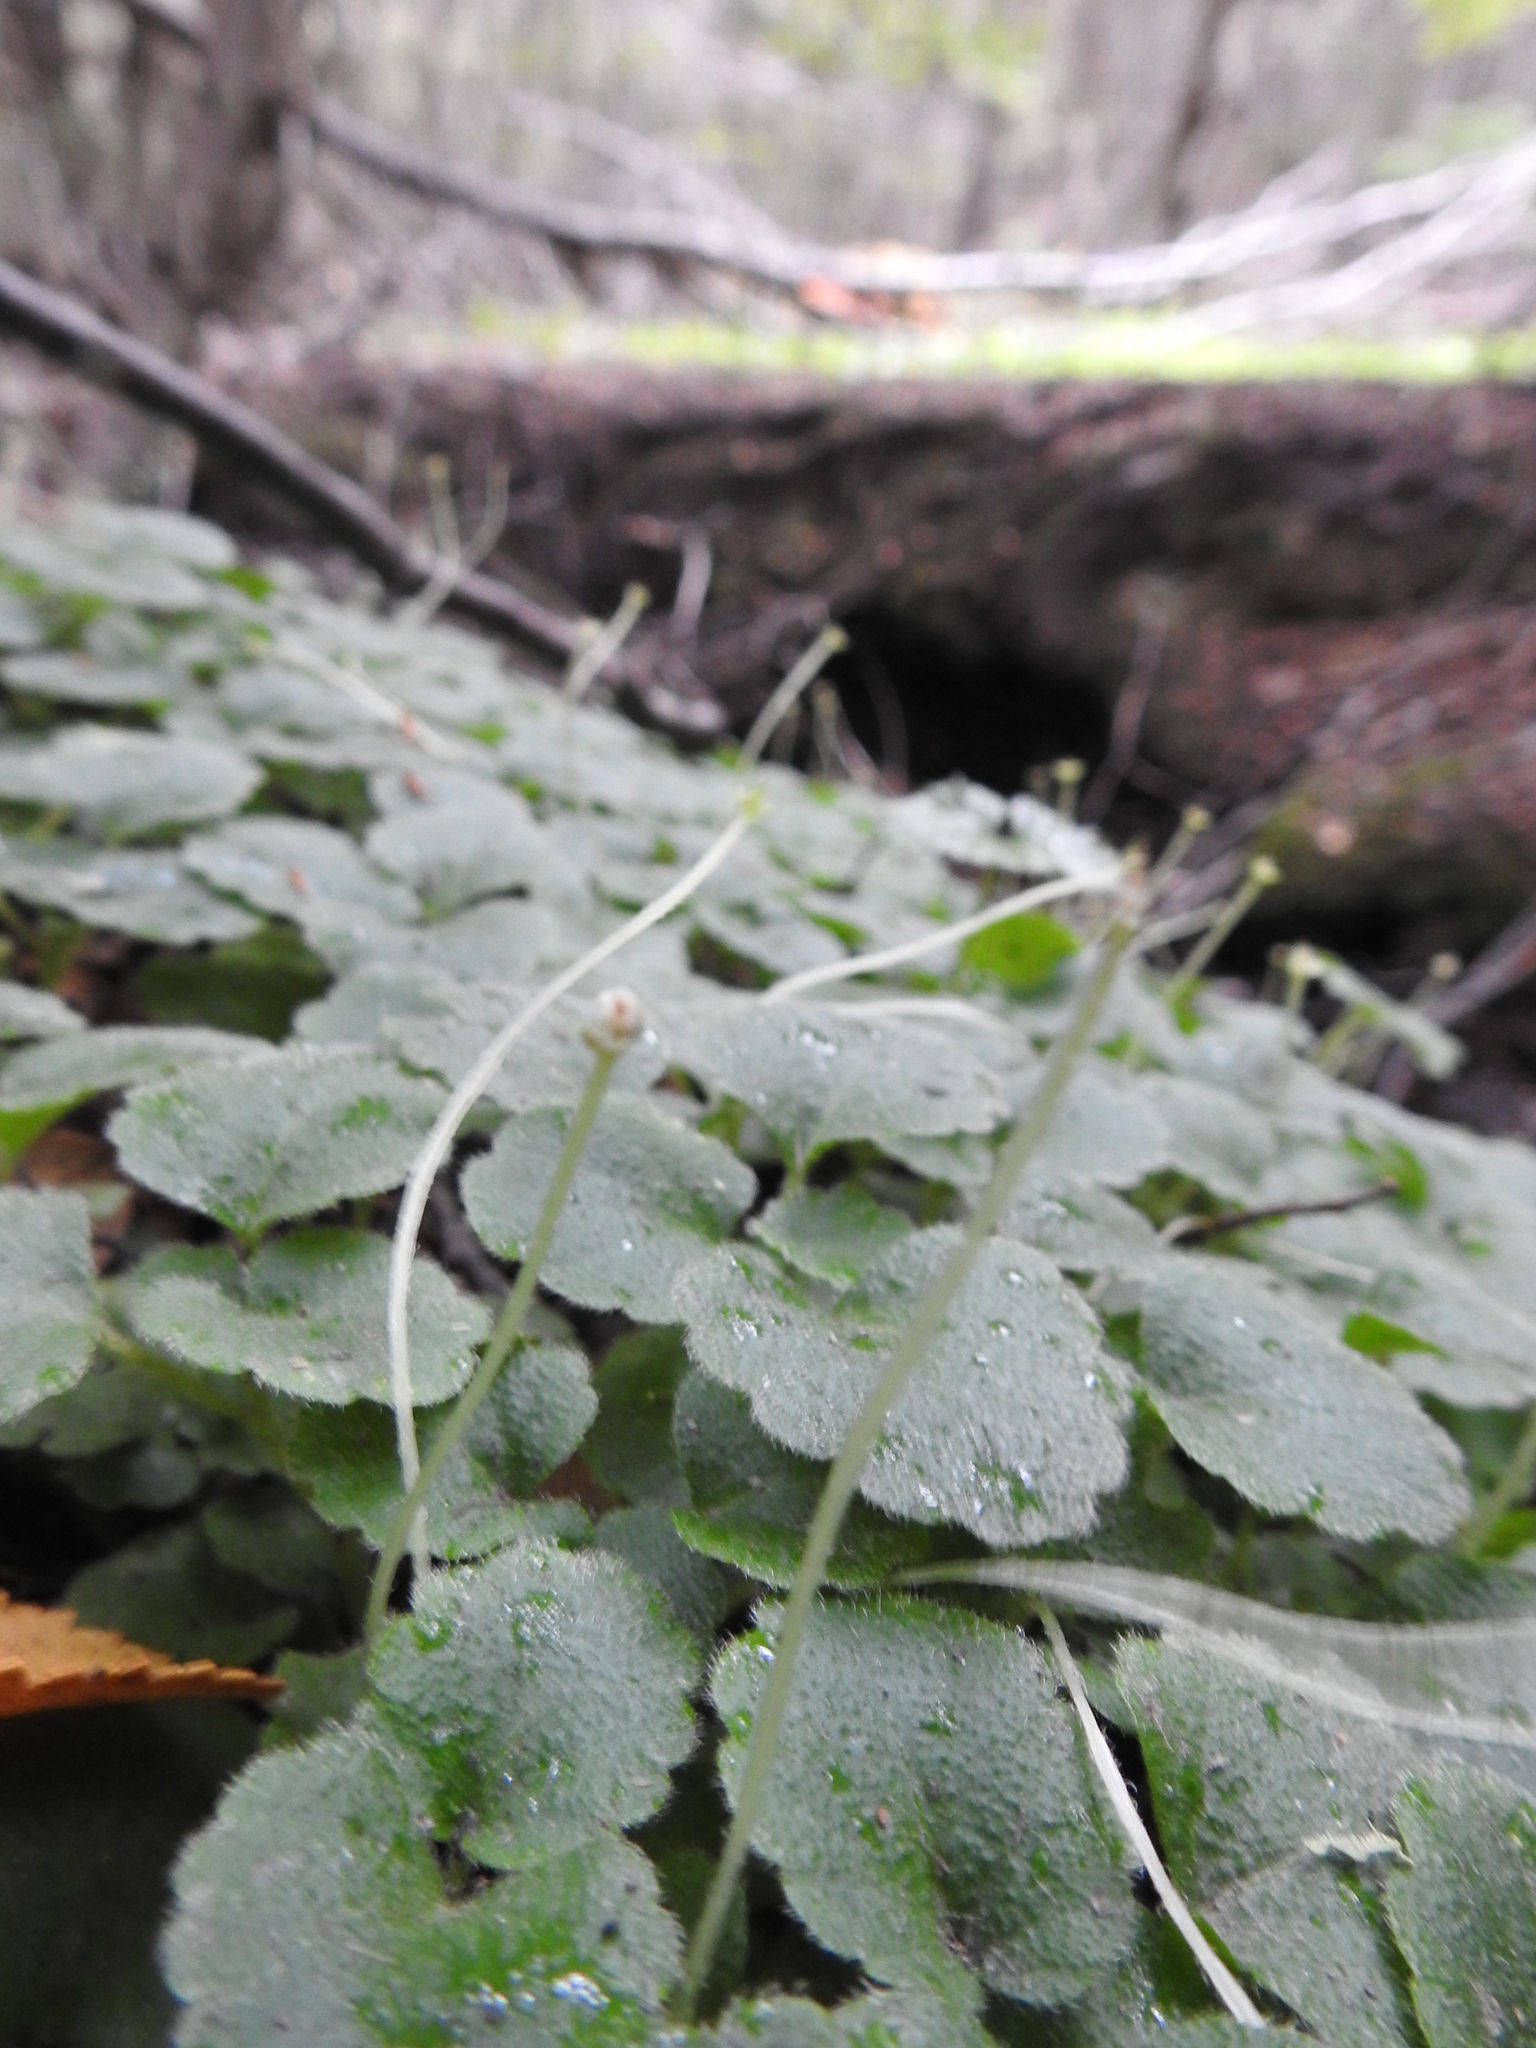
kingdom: Plantae
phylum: Tracheophyta
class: Magnoliopsida
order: Malpighiales
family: Euphorbiaceae
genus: Dysopsis
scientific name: Dysopsis glechomoides
